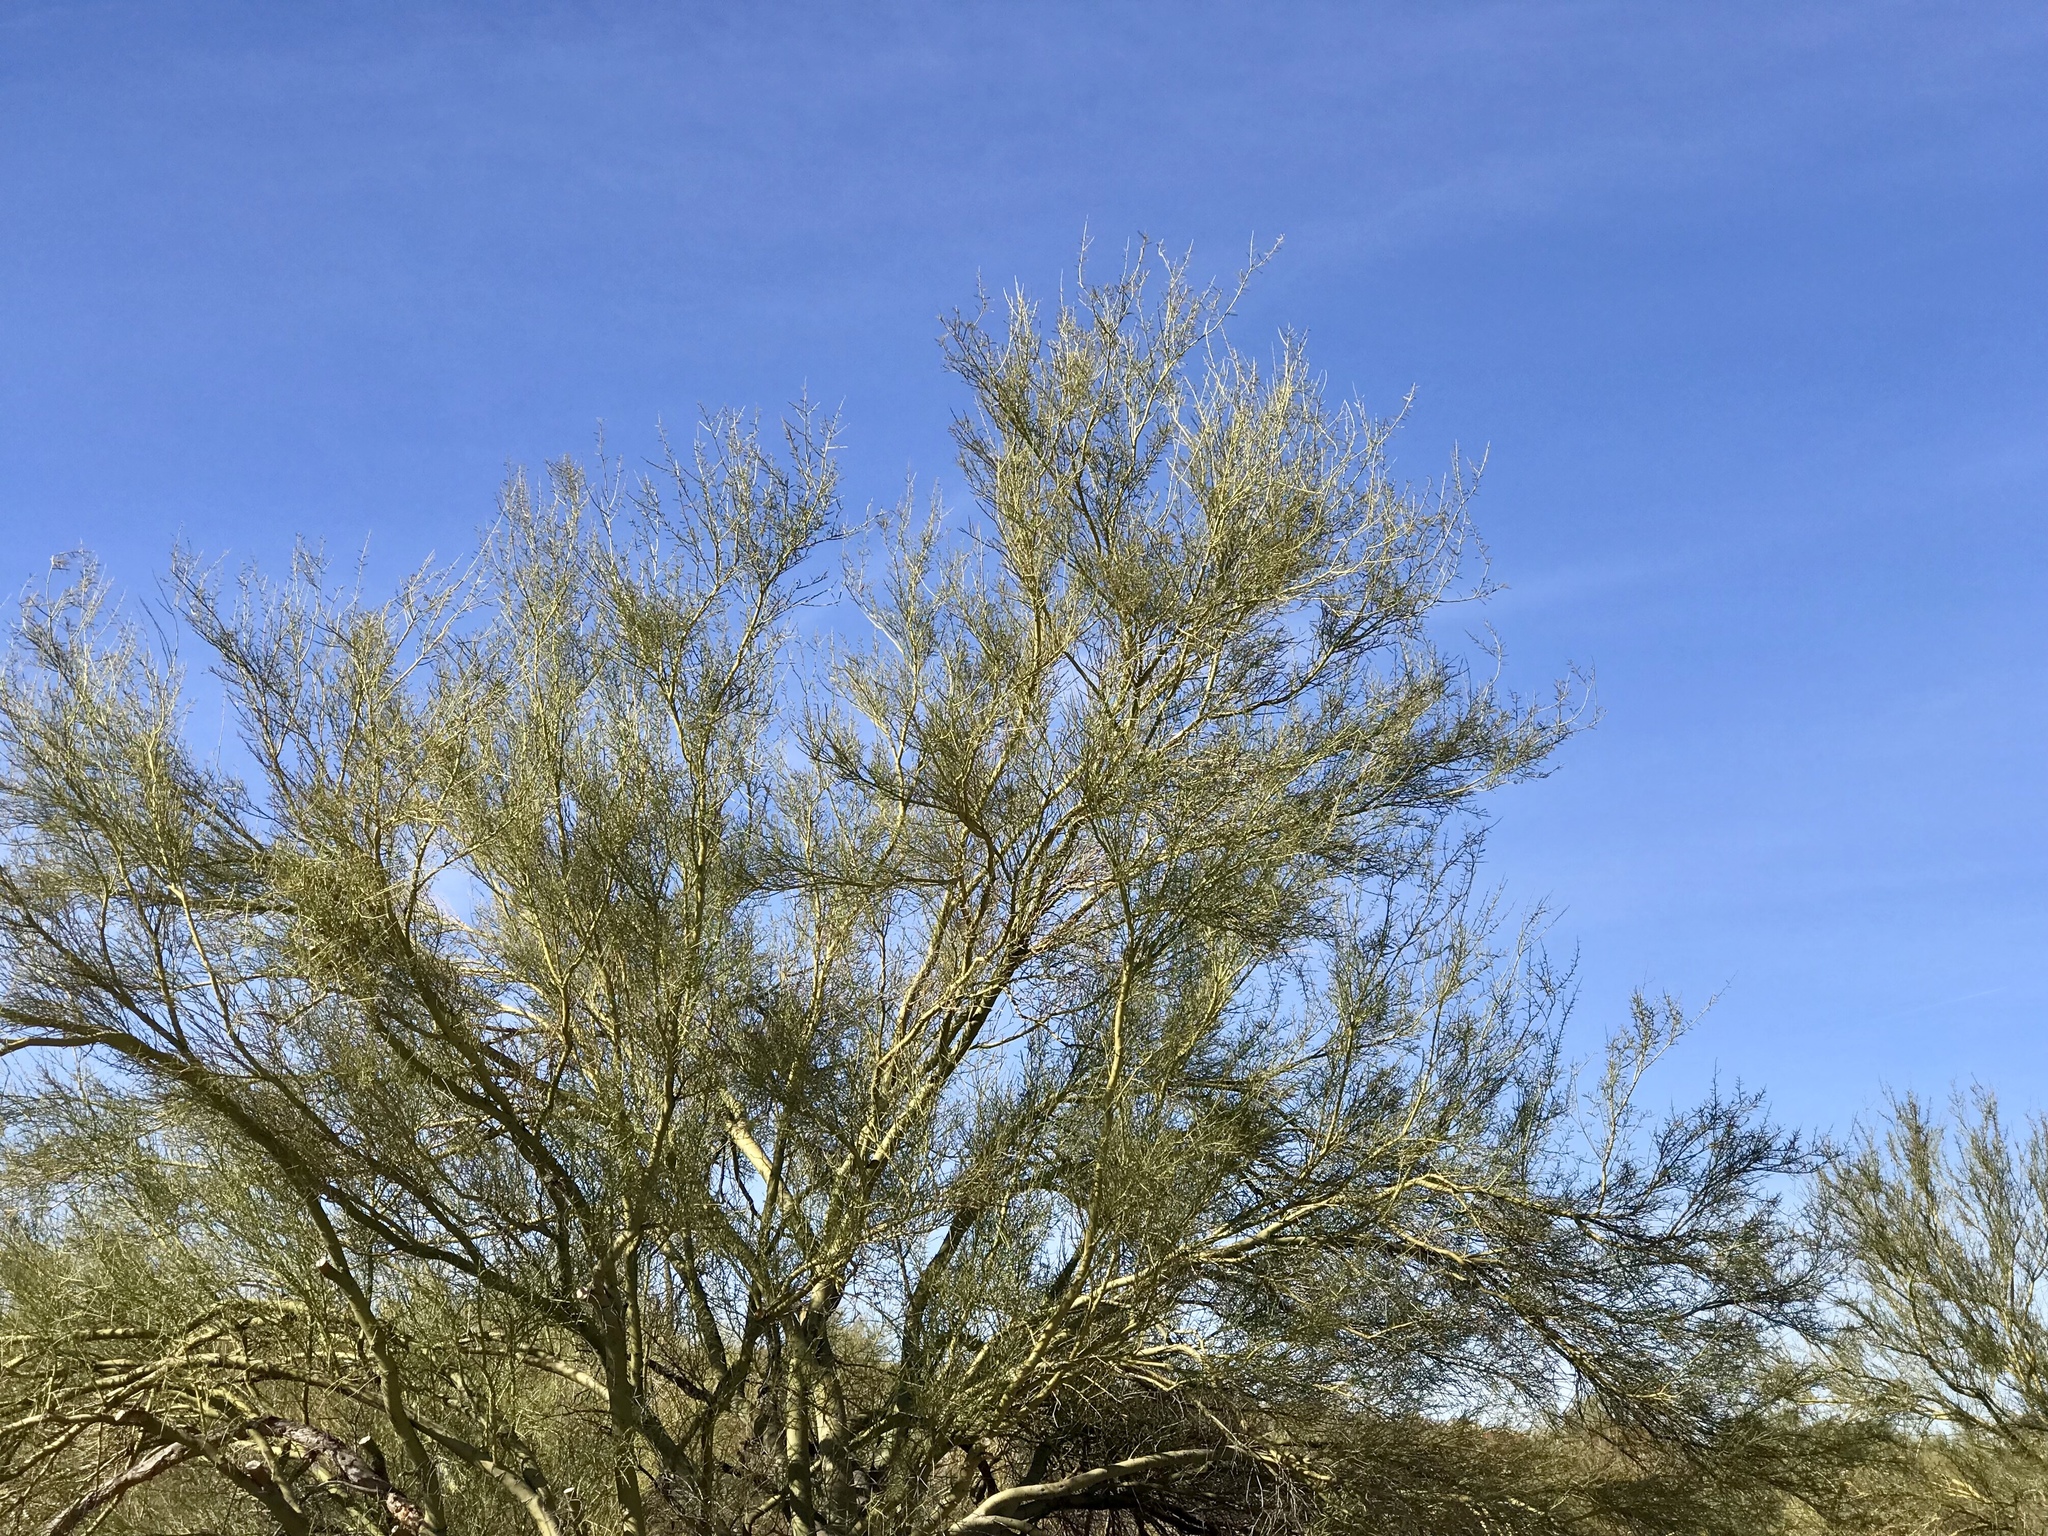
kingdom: Plantae
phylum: Tracheophyta
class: Magnoliopsida
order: Fabales
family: Fabaceae
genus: Parkinsonia
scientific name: Parkinsonia microphylla
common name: Yellow paloverde
